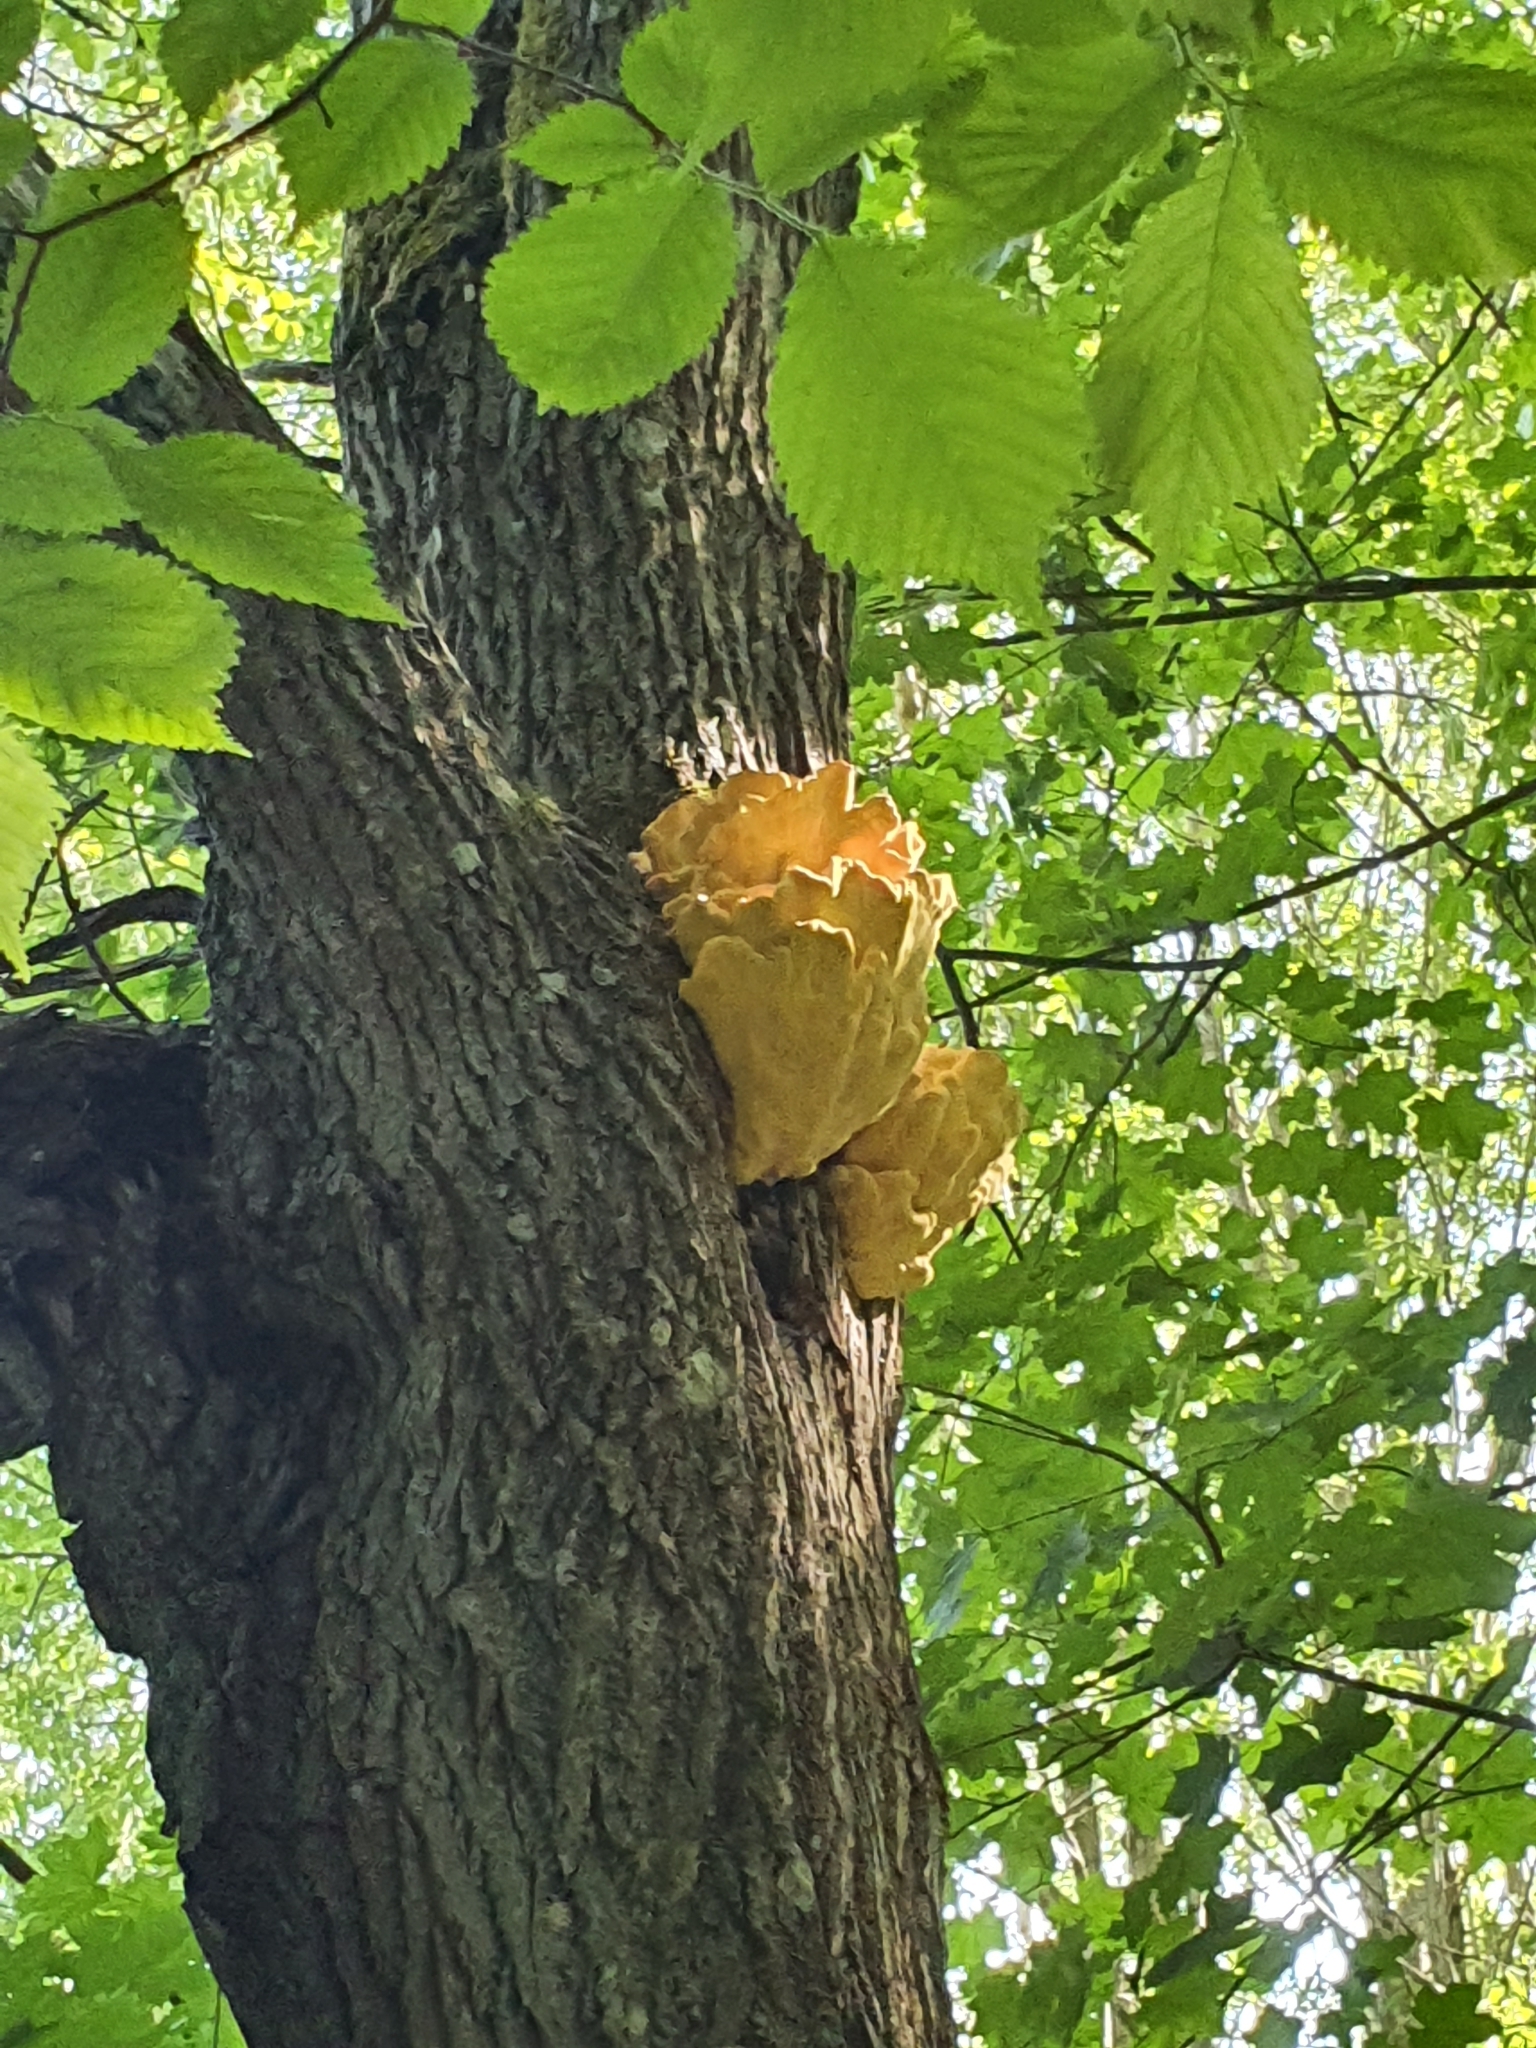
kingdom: Fungi
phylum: Basidiomycota
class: Agaricomycetes
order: Polyporales
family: Laetiporaceae
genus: Laetiporus
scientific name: Laetiporus sulphureus
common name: Chicken of the woods
